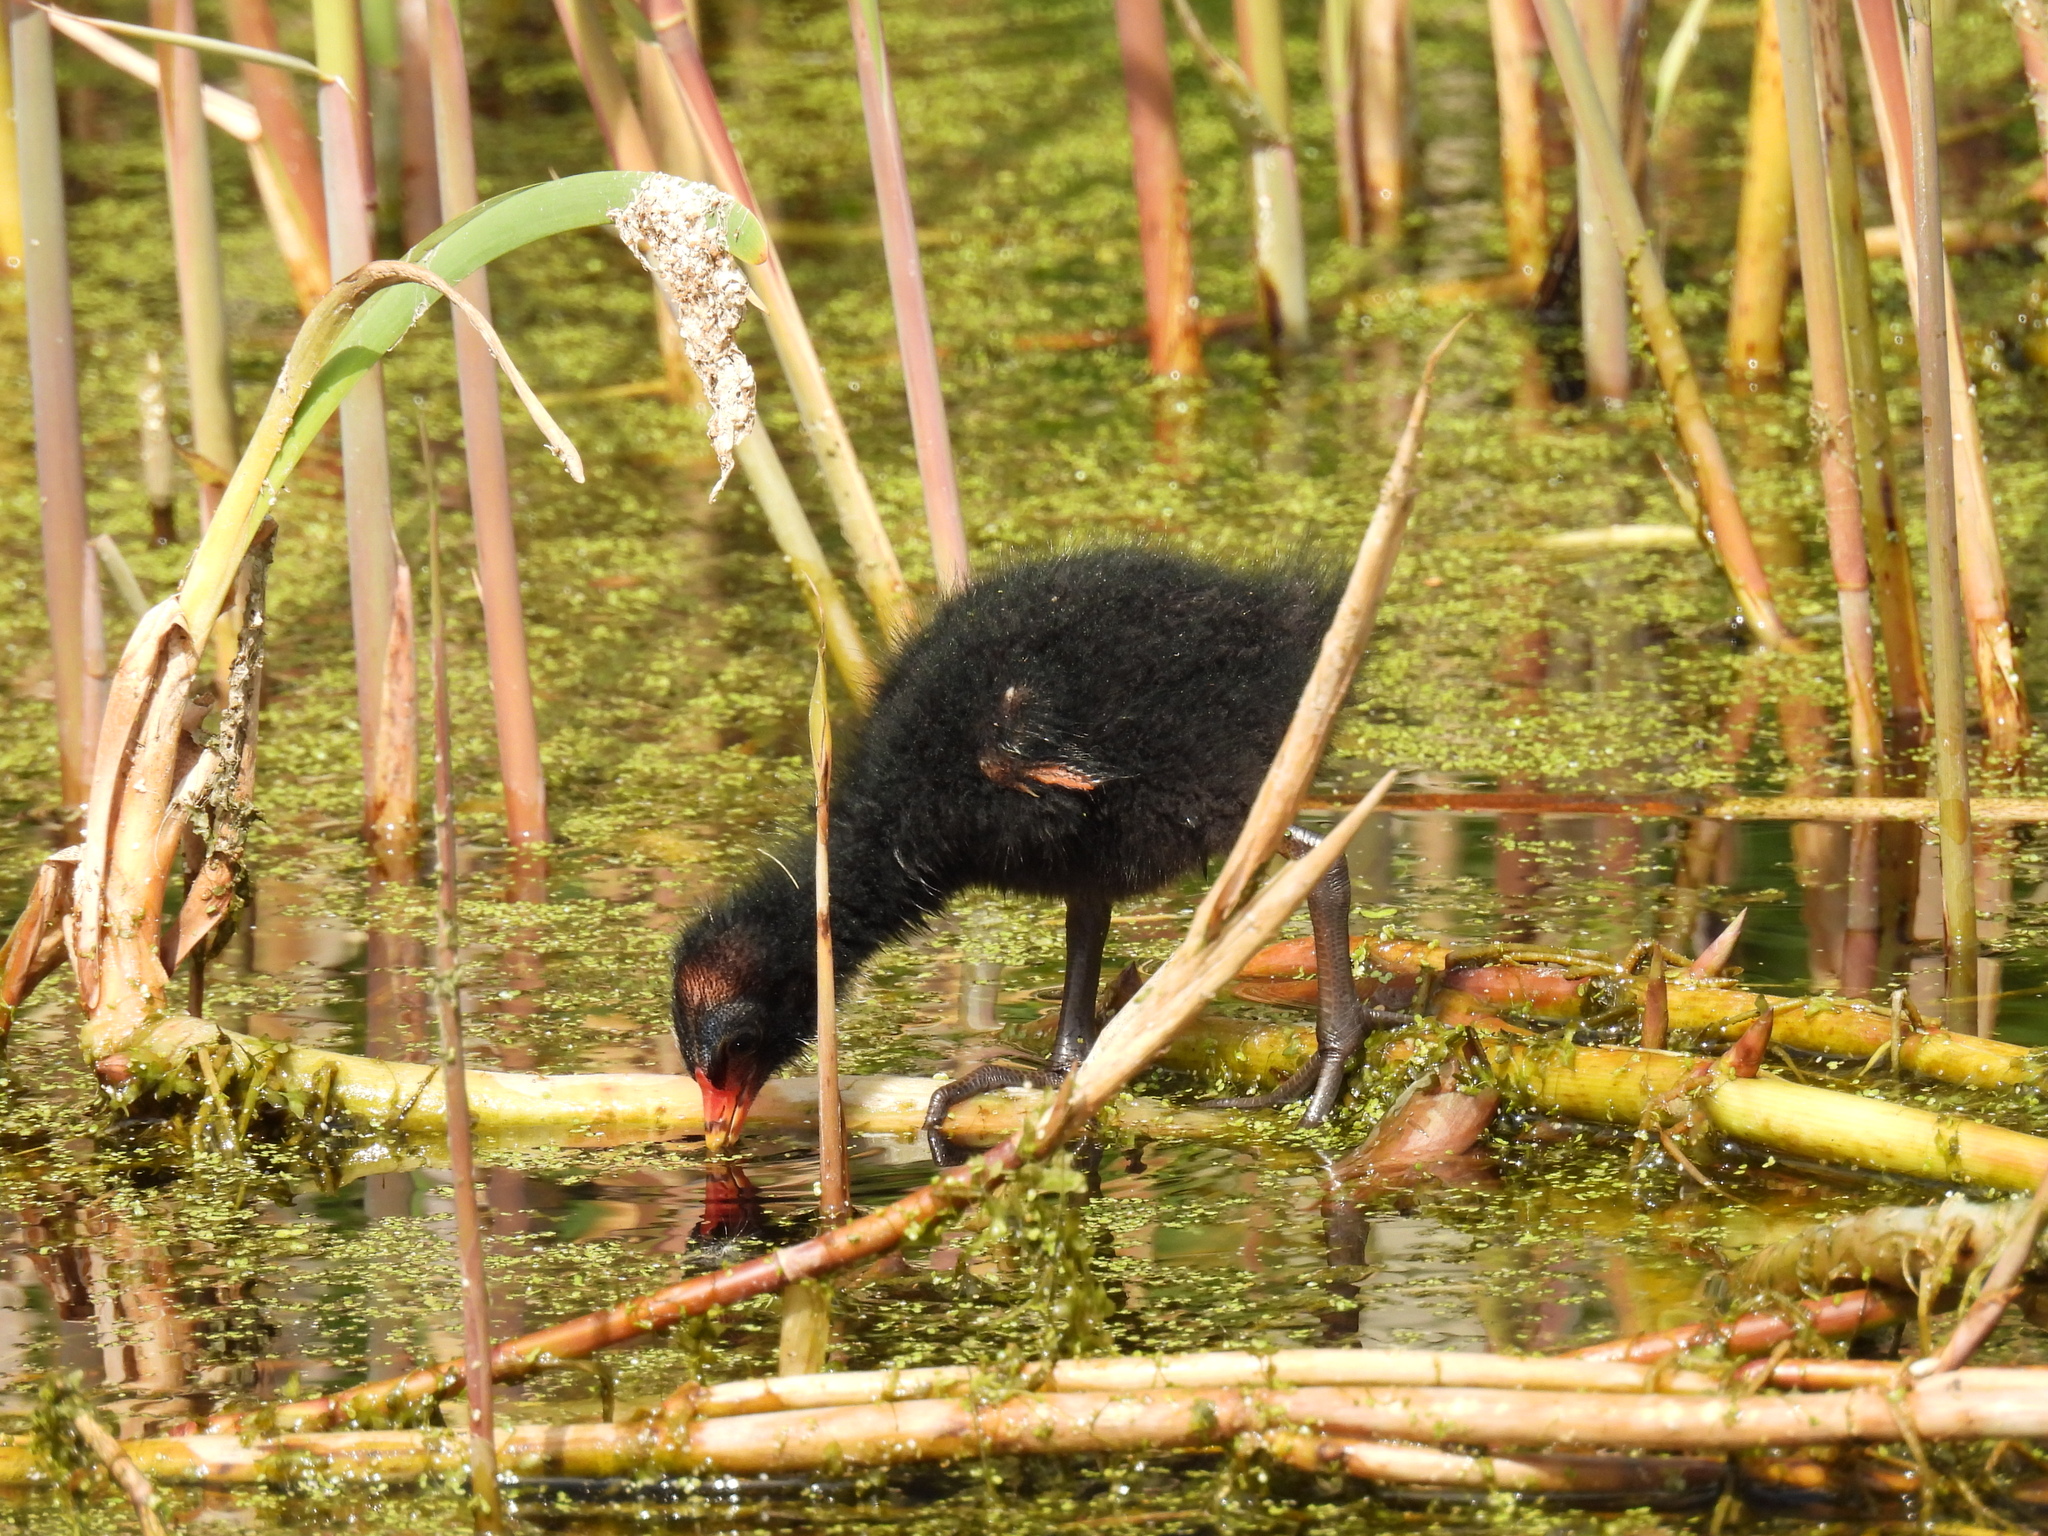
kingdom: Animalia
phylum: Chordata
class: Aves
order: Gruiformes
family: Rallidae
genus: Gallinula
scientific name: Gallinula chloropus
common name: Common moorhen
